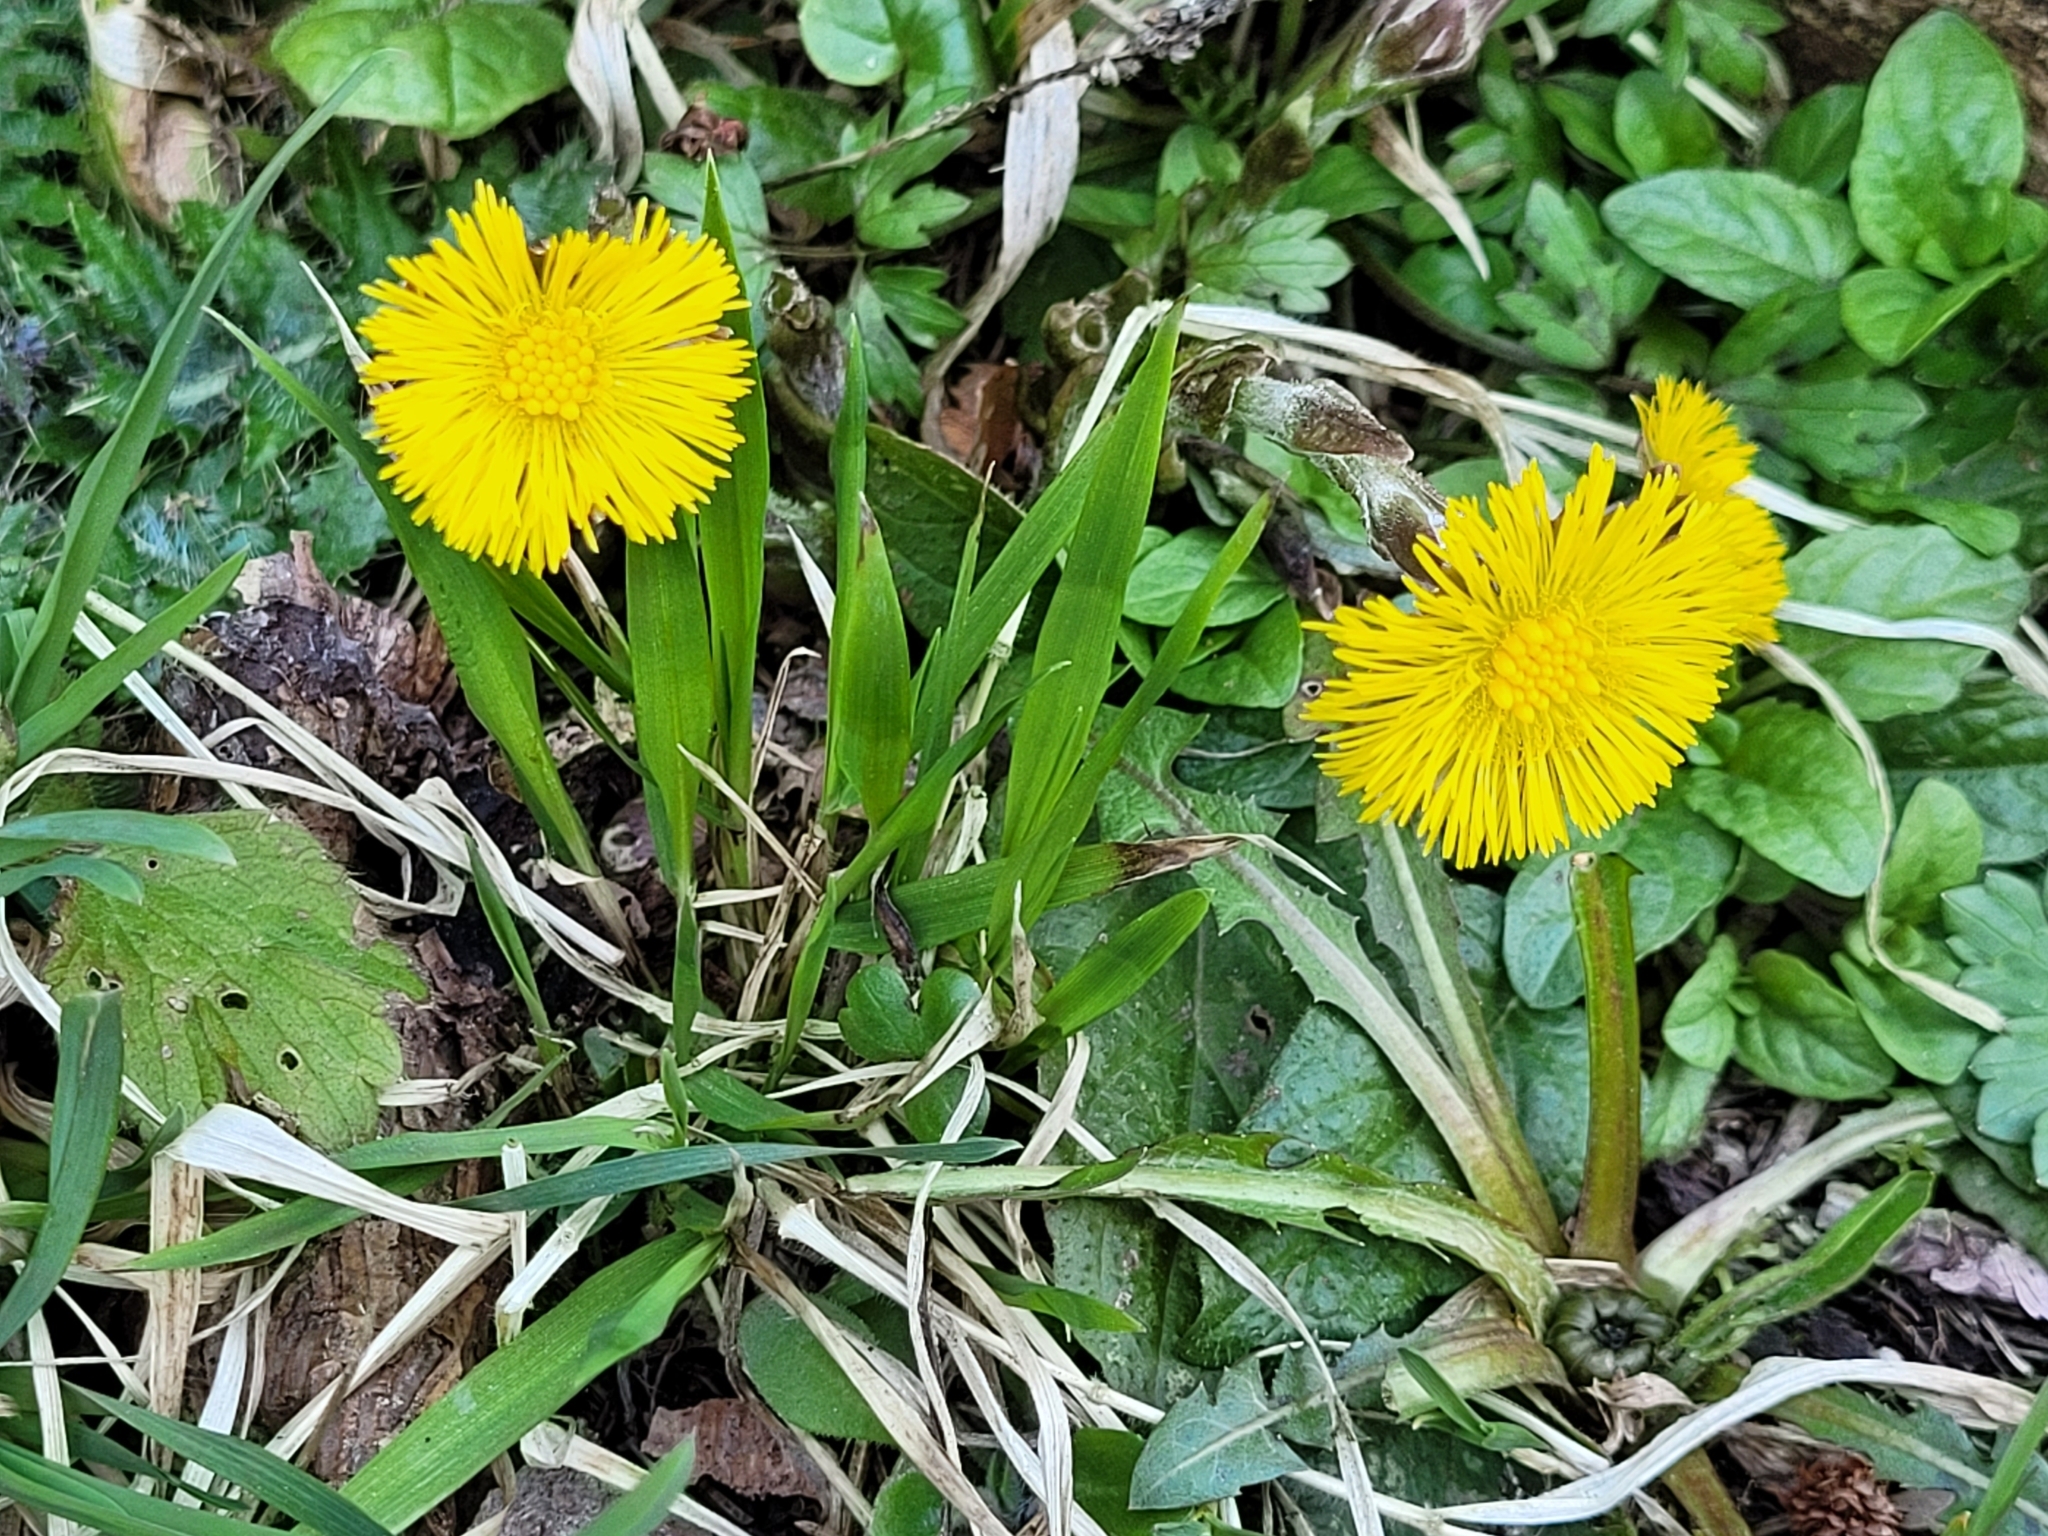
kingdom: Plantae
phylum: Tracheophyta
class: Magnoliopsida
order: Asterales
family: Asteraceae
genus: Tussilago
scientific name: Tussilago farfara
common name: Coltsfoot
